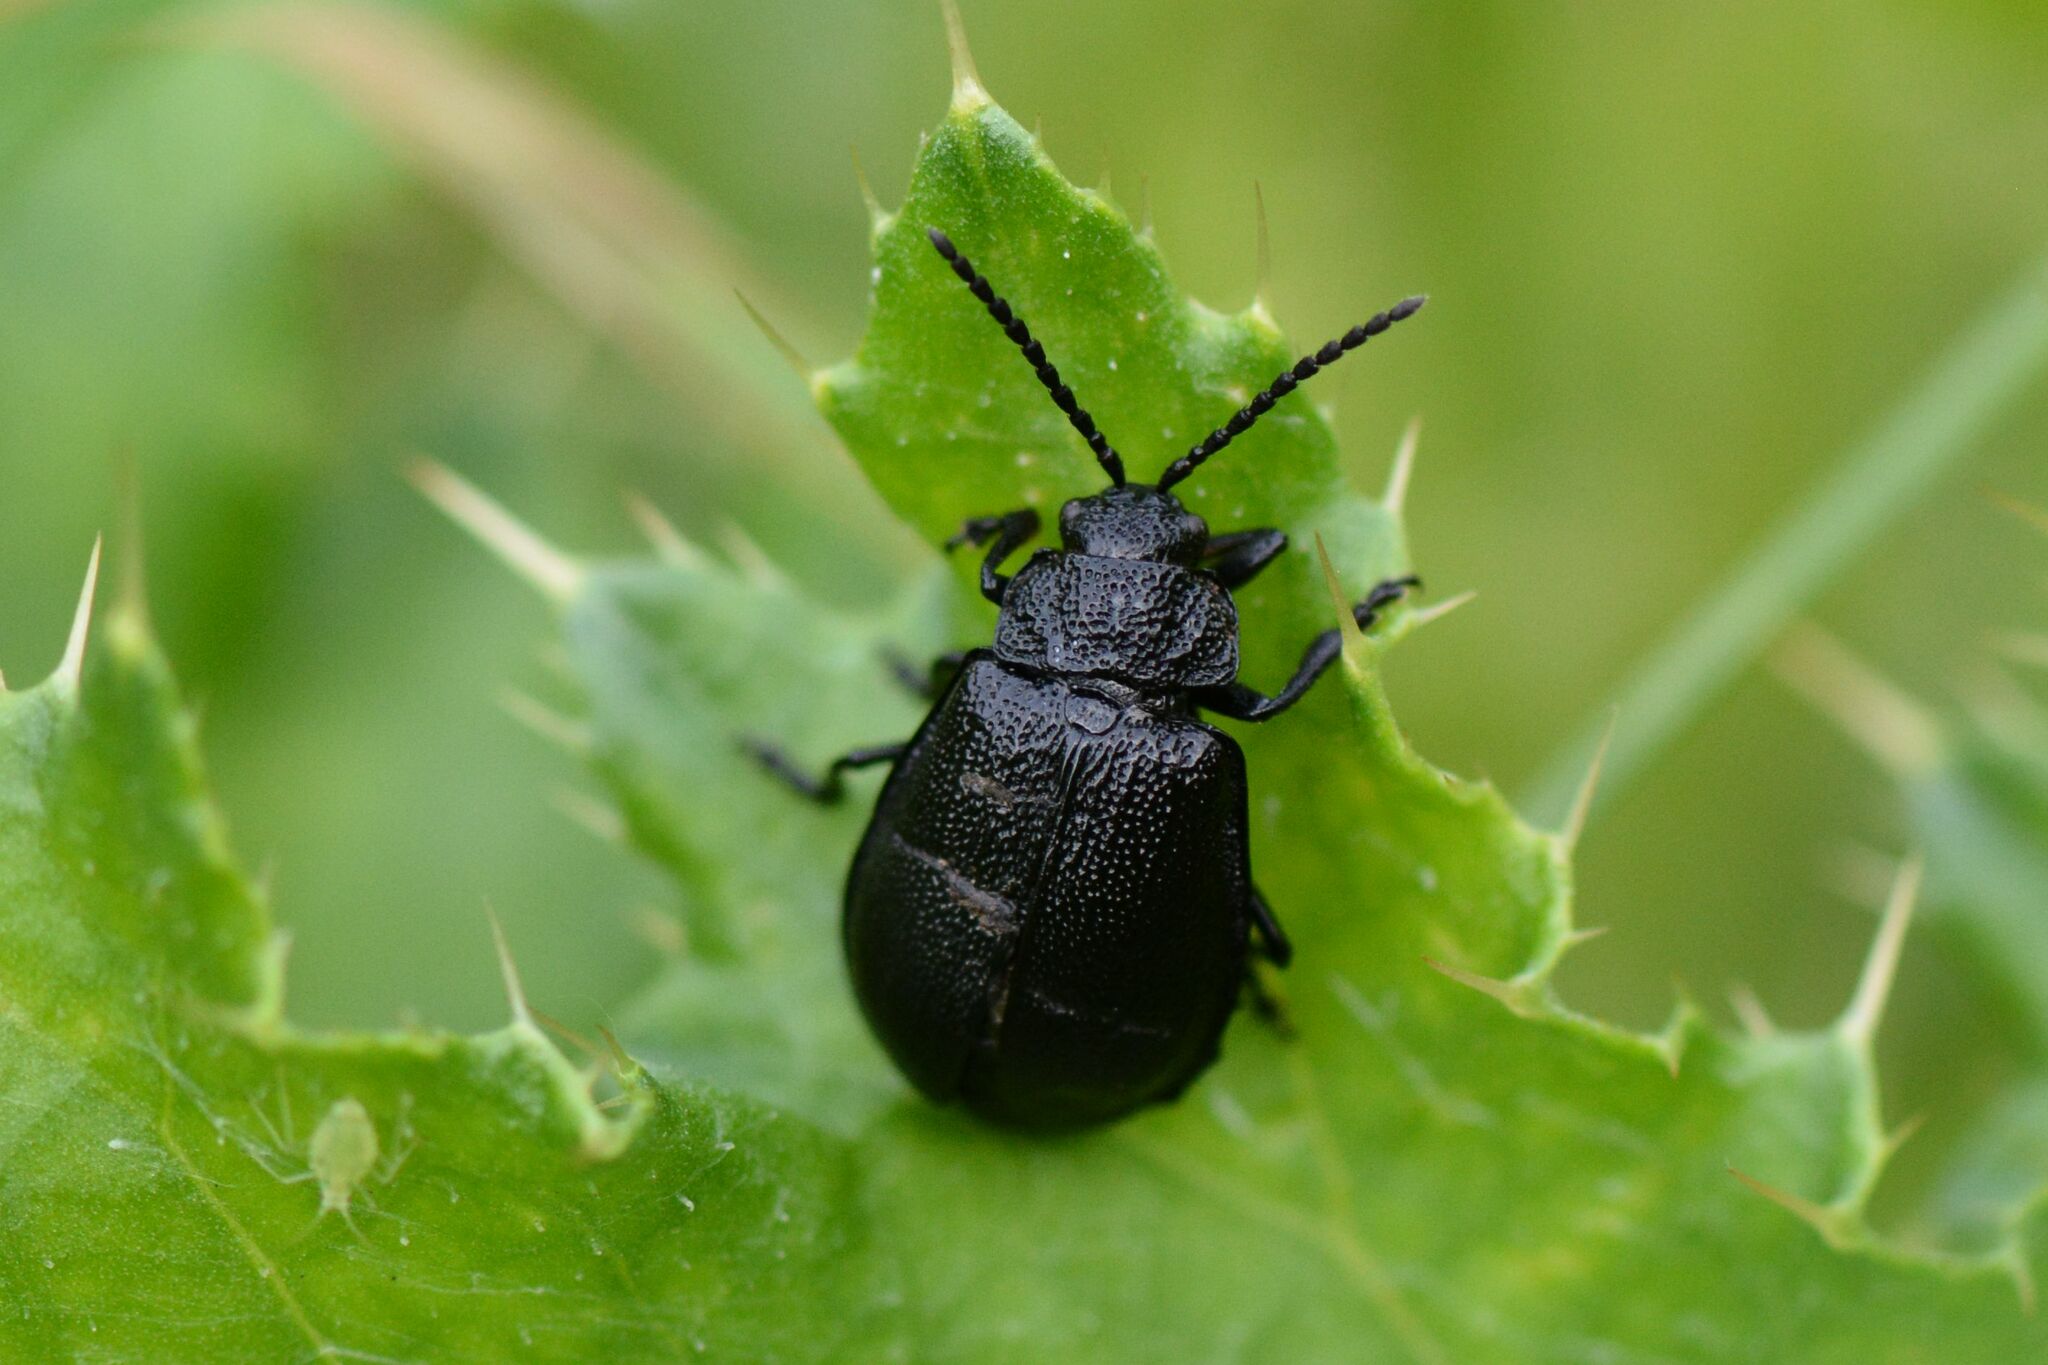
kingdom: Animalia
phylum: Arthropoda
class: Insecta
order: Coleoptera
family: Chrysomelidae
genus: Galeruca
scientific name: Galeruca tanaceti
